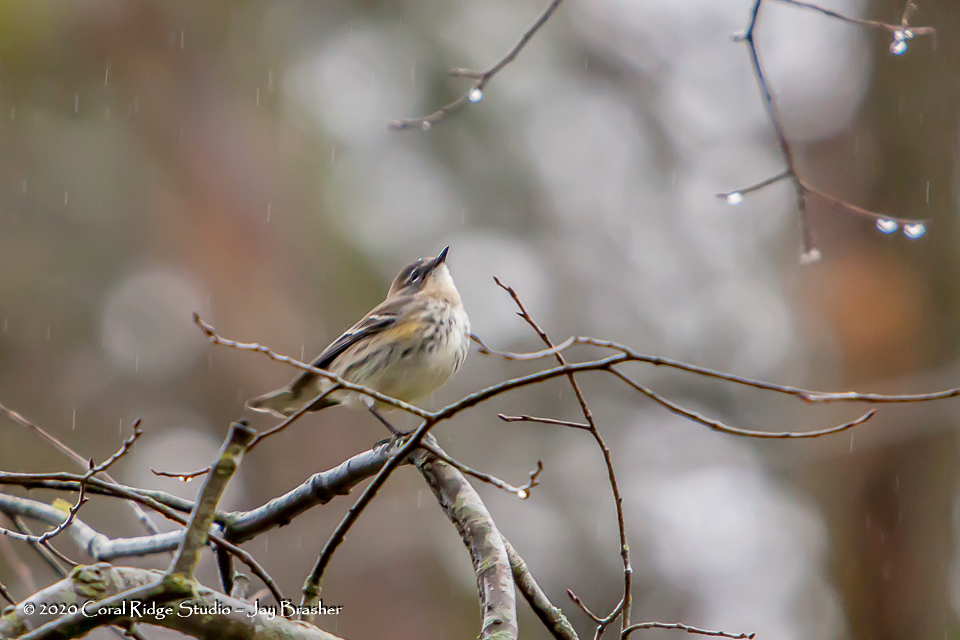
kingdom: Animalia
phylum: Chordata
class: Aves
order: Passeriformes
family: Parulidae
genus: Setophaga
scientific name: Setophaga coronata
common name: Myrtle warbler
